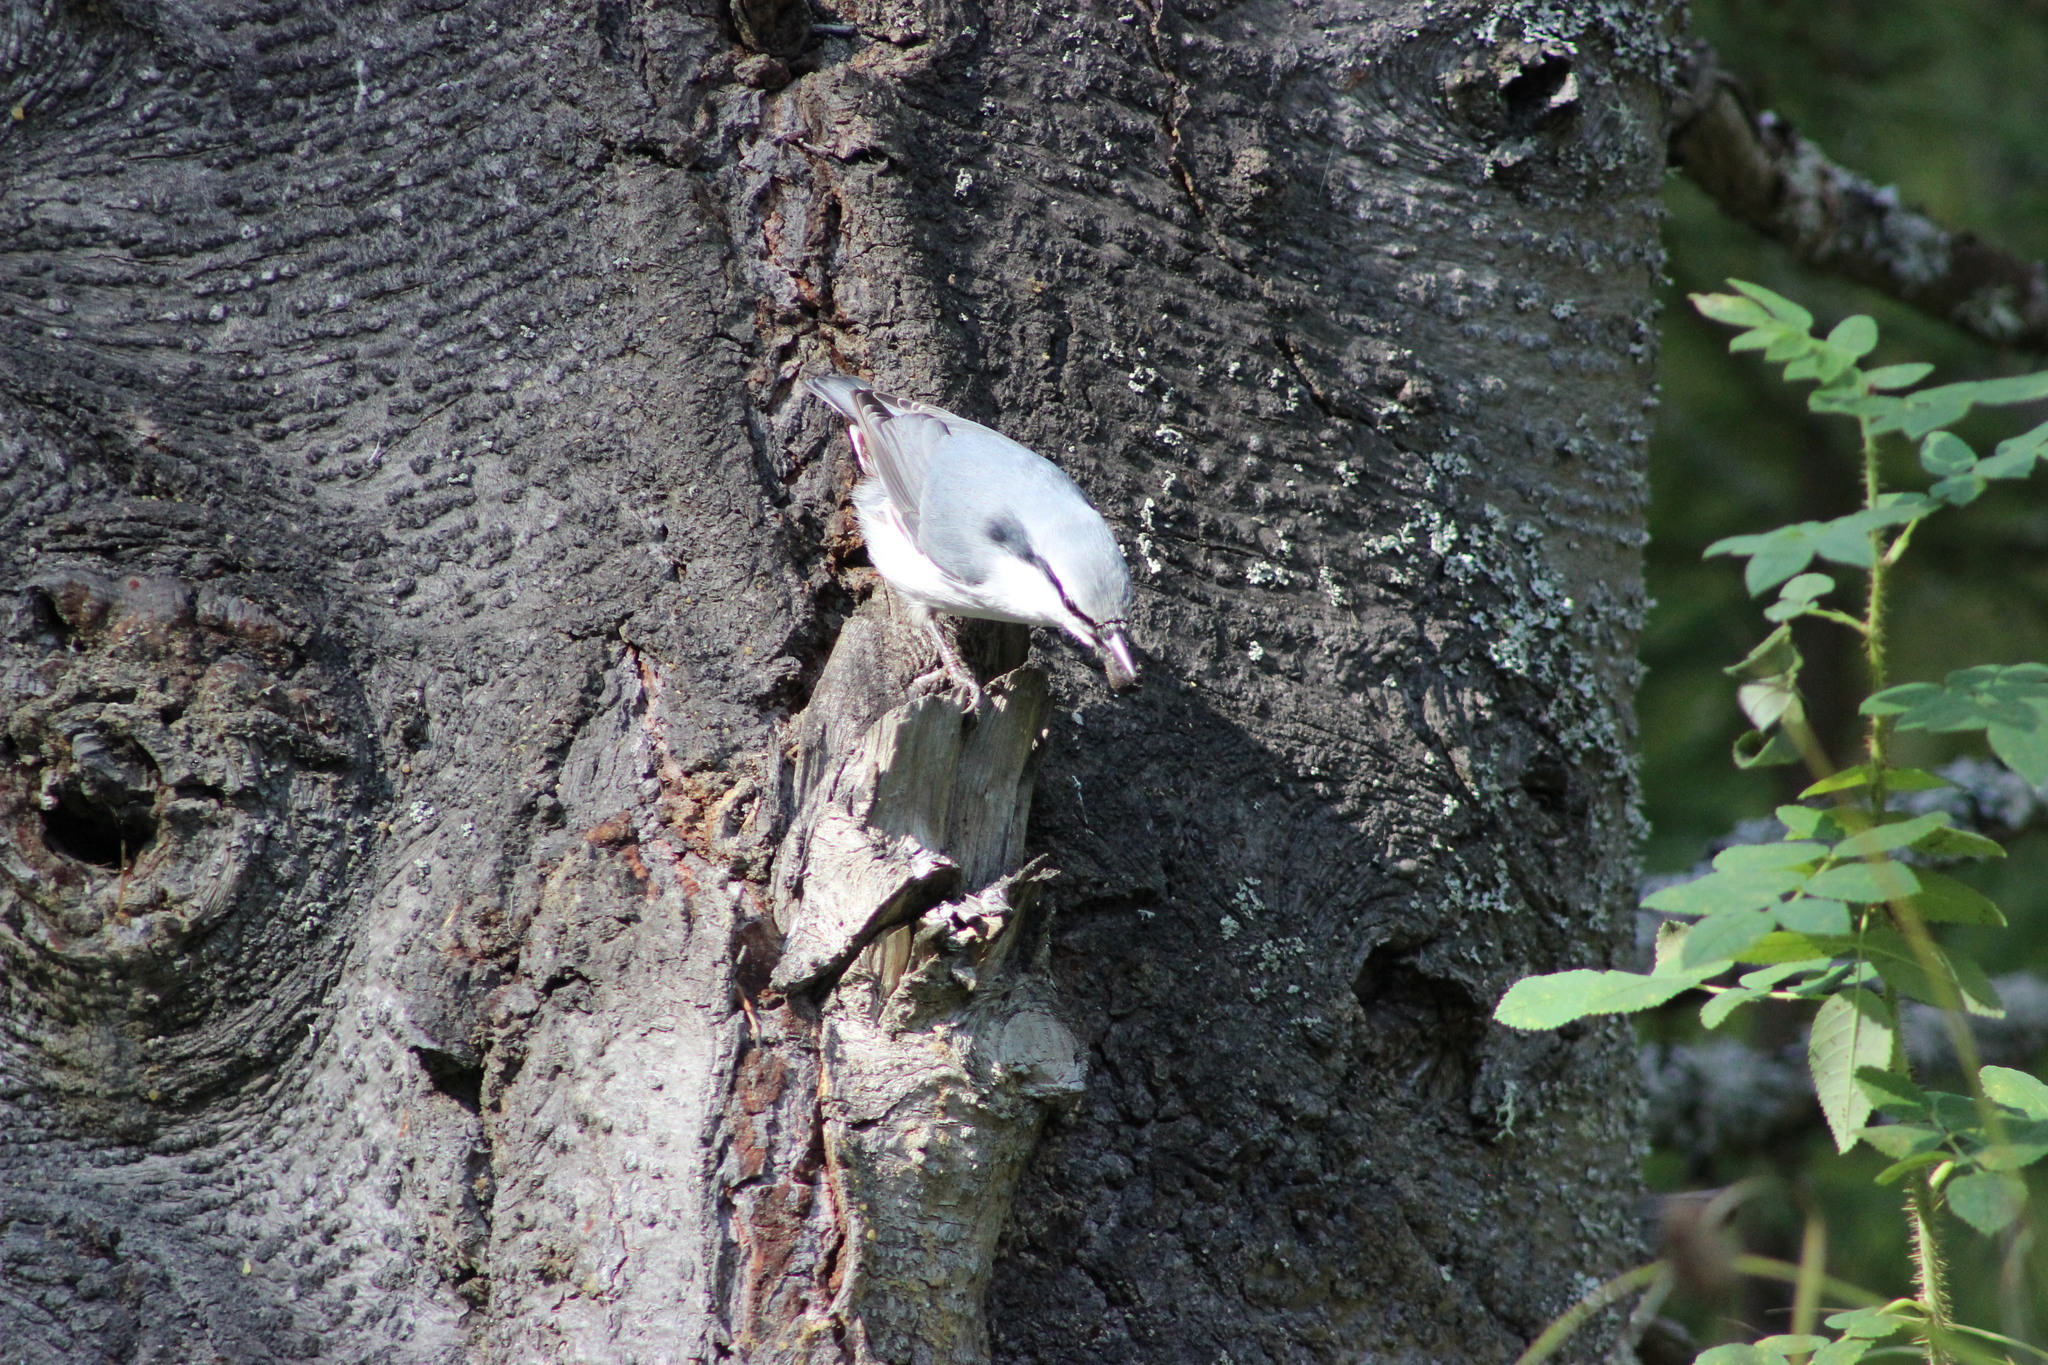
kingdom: Animalia
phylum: Chordata
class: Aves
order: Passeriformes
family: Sittidae
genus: Sitta
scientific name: Sitta europaea
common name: Eurasian nuthatch
